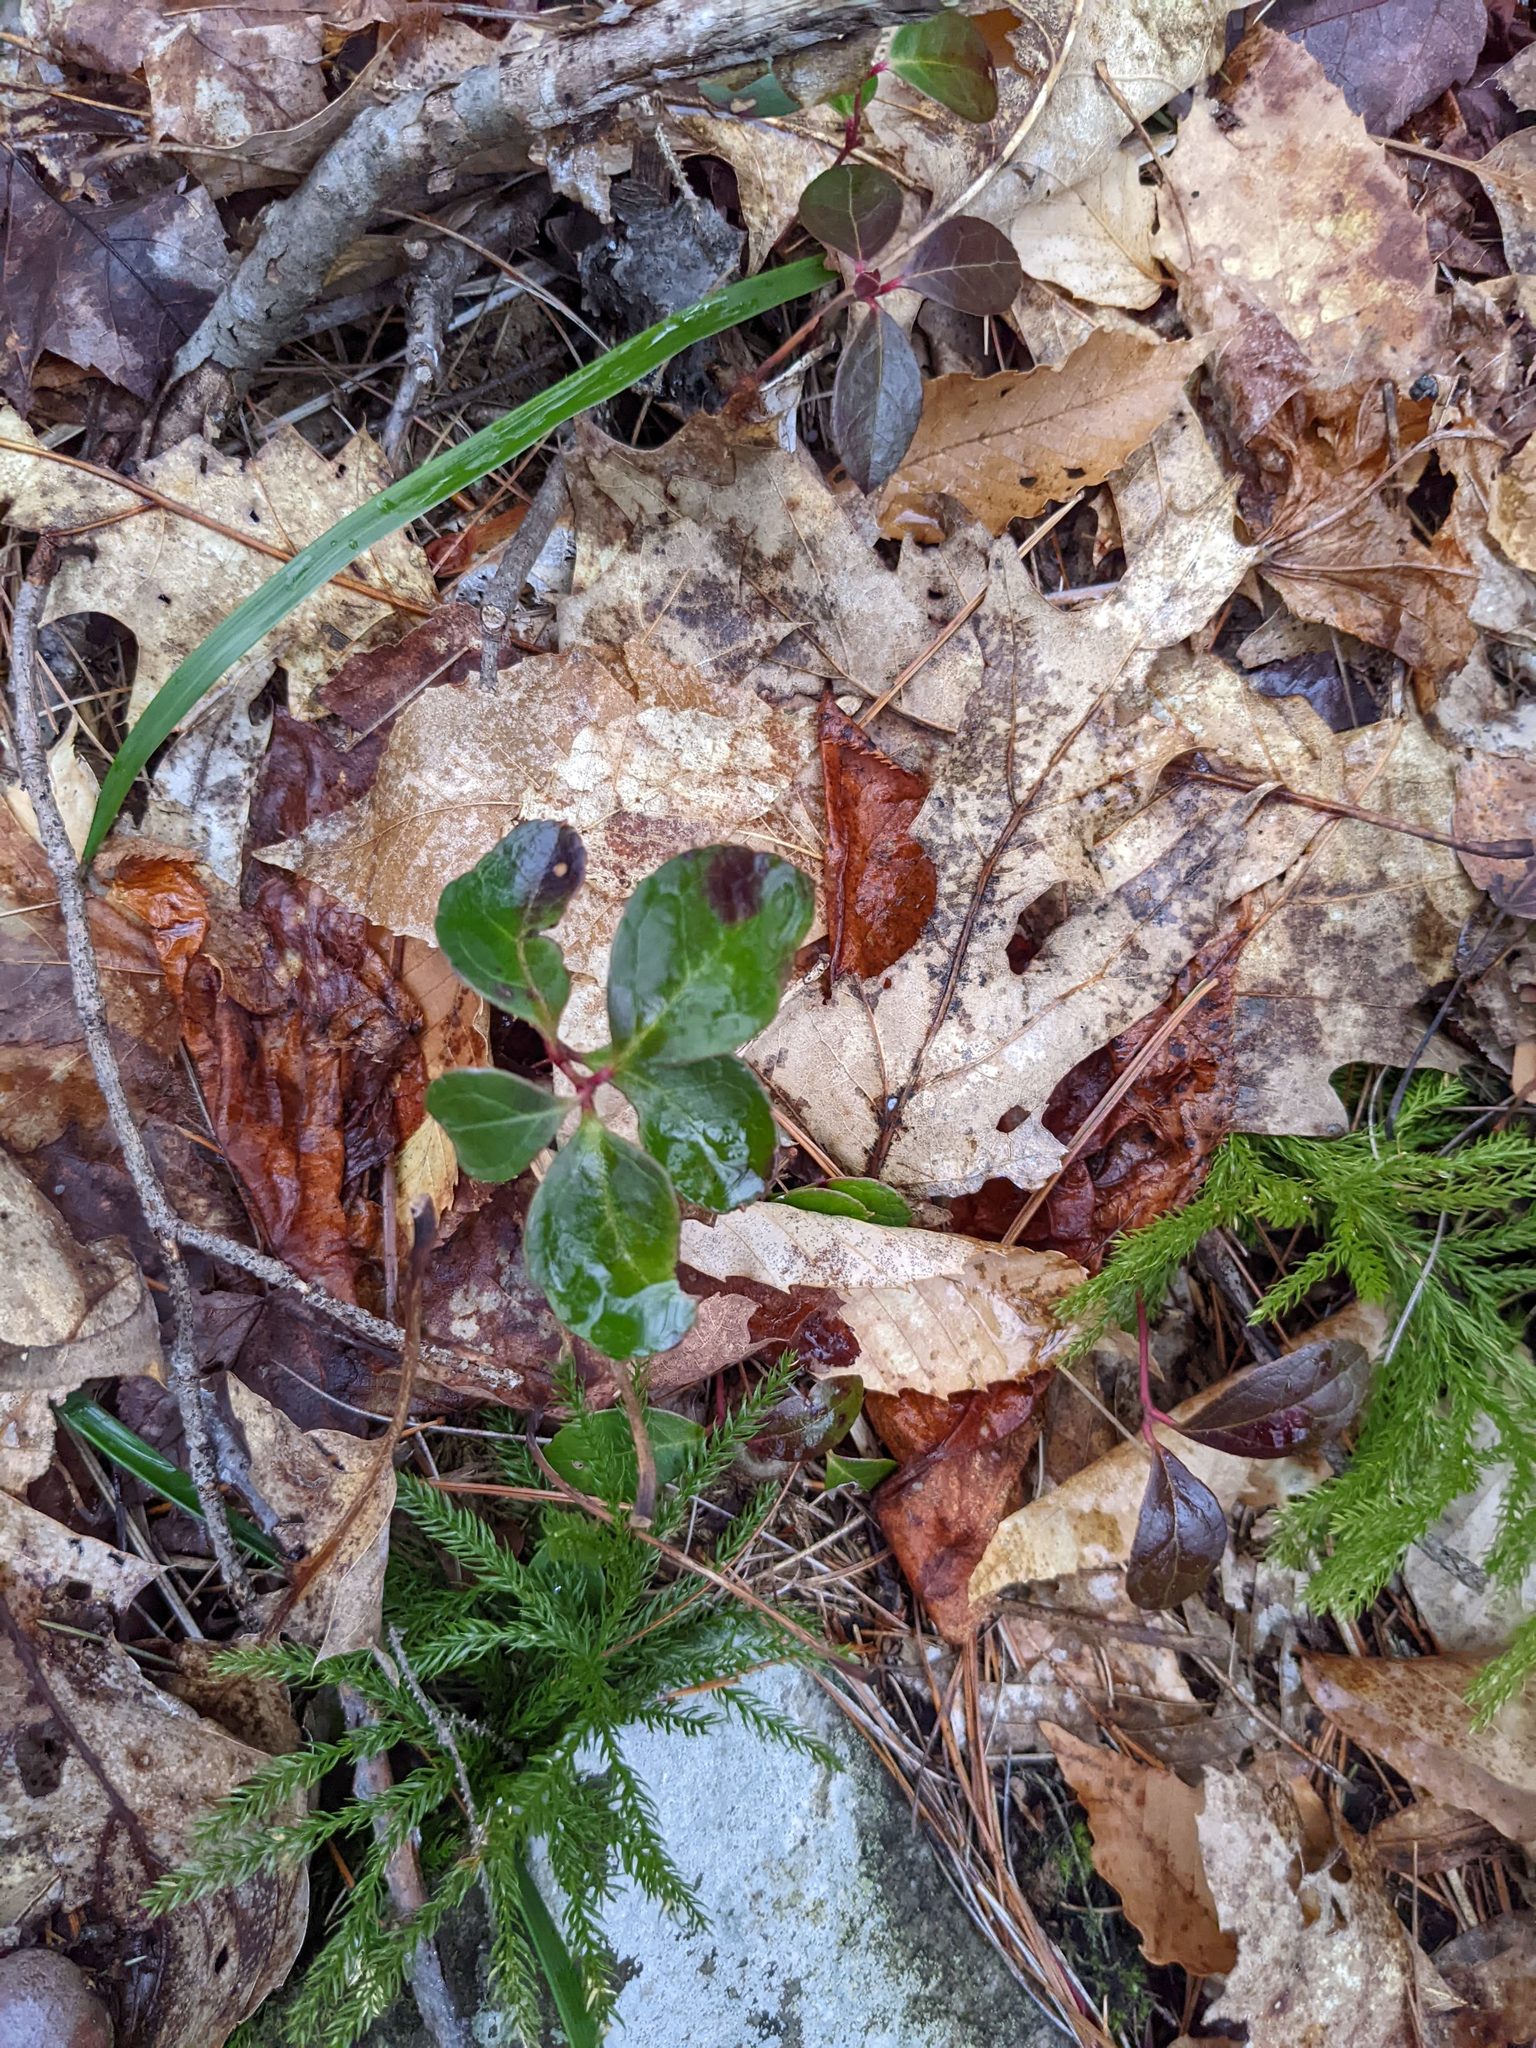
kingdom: Plantae
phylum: Tracheophyta
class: Magnoliopsida
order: Ericales
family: Ericaceae
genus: Gaultheria
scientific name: Gaultheria procumbens
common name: Checkerberry
